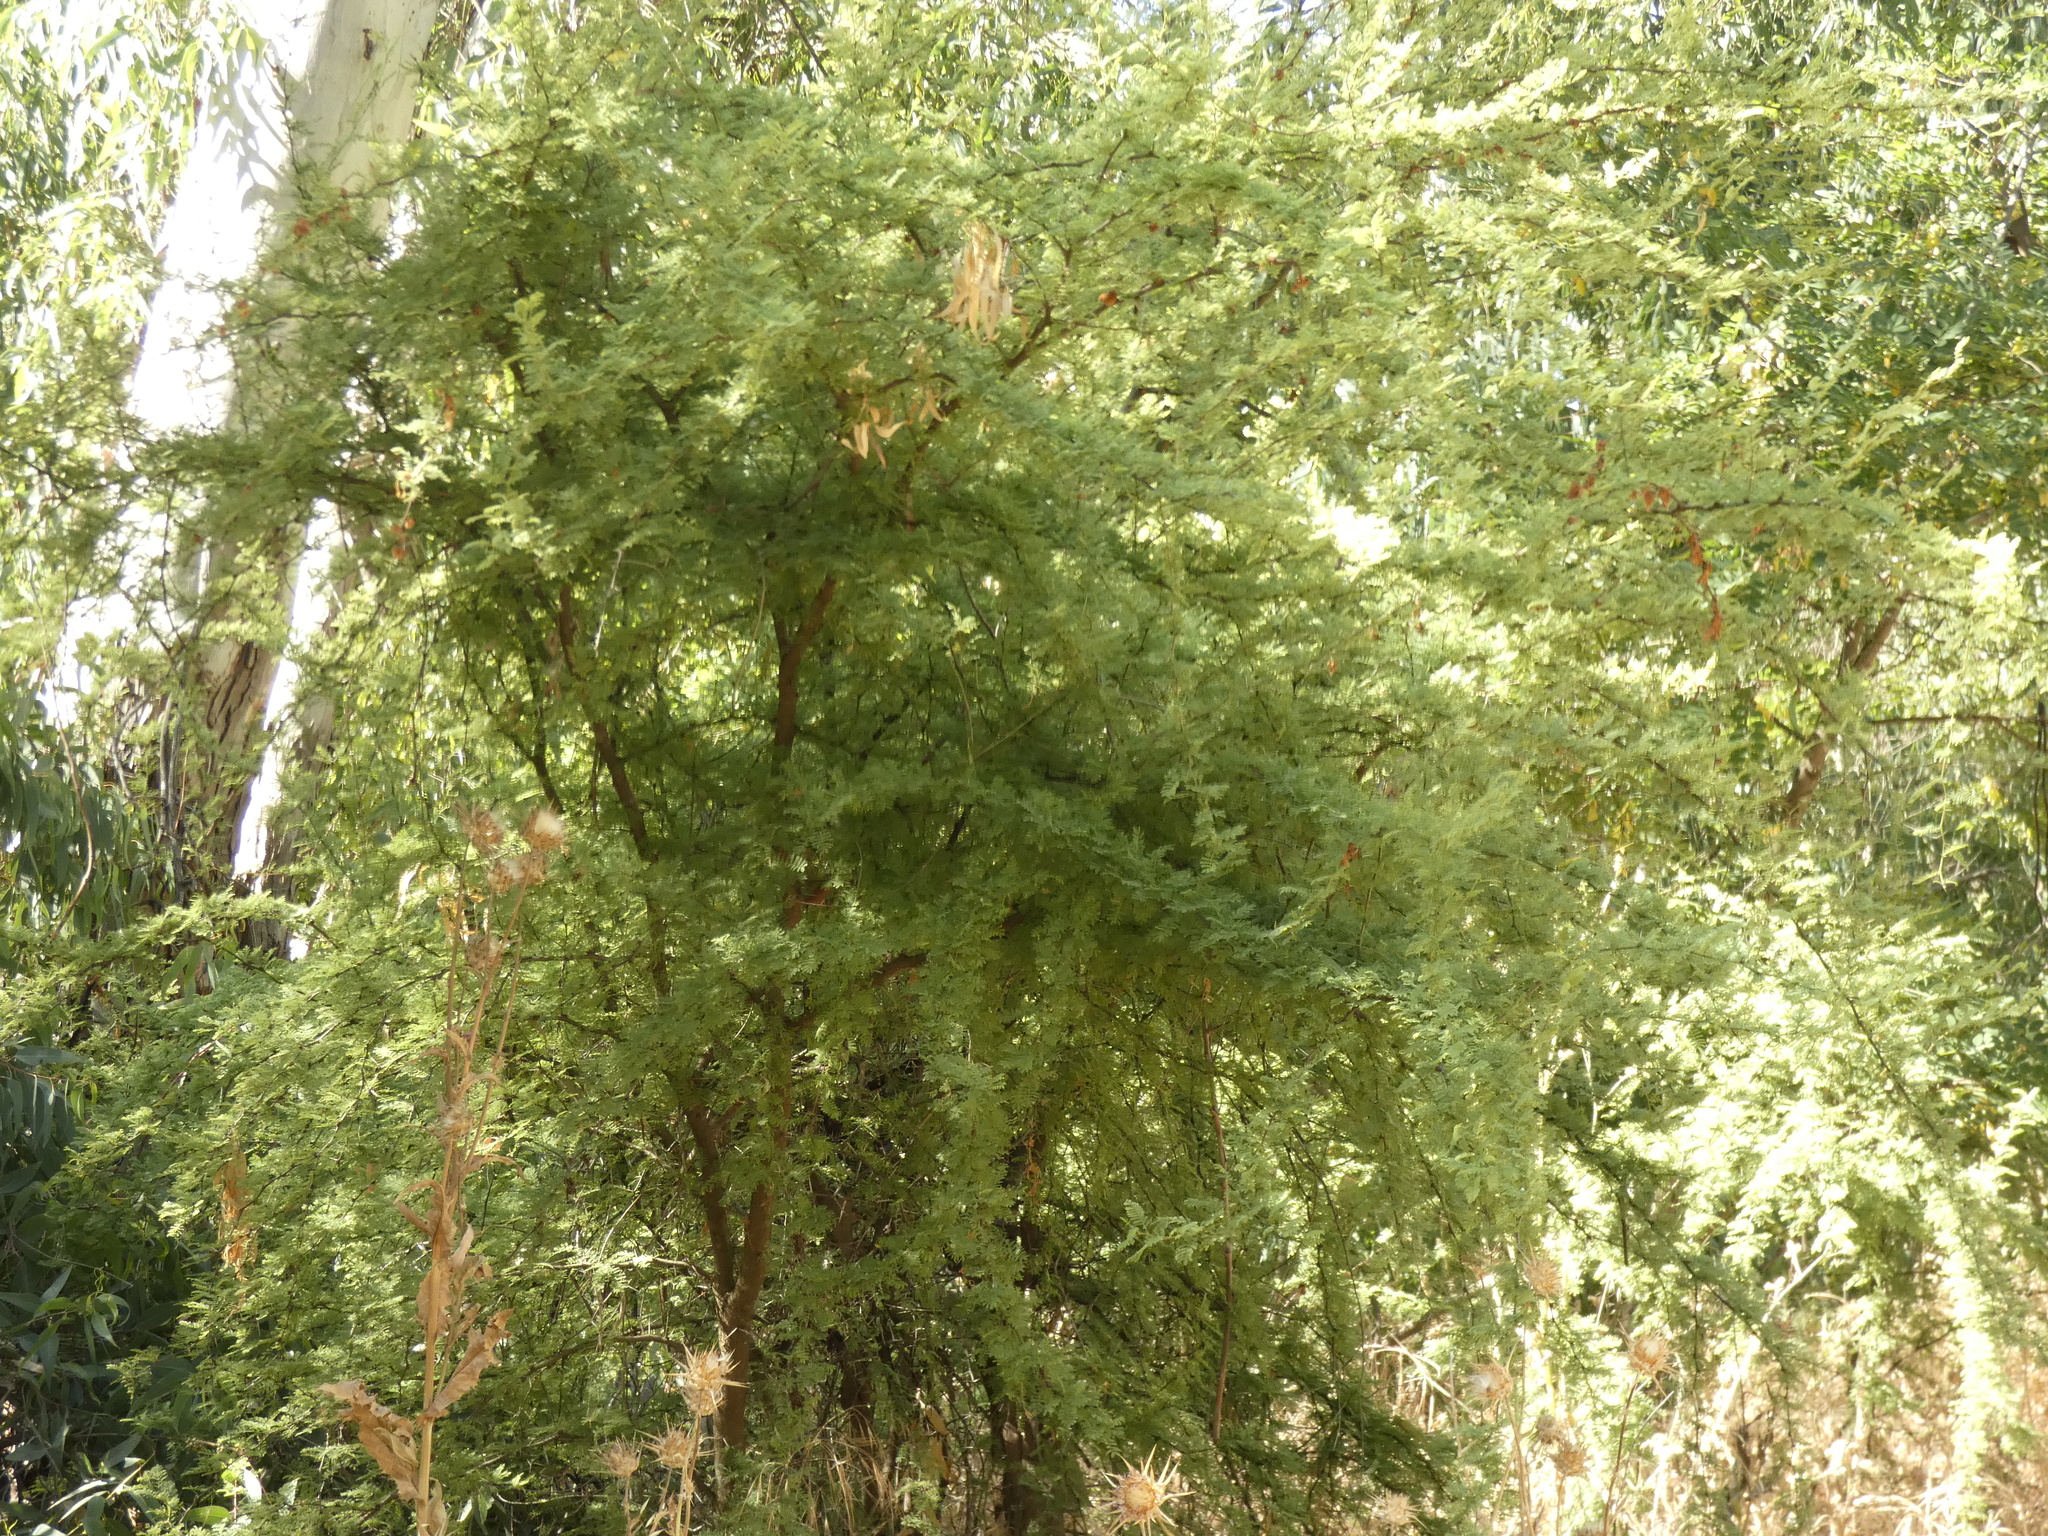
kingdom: Plantae
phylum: Tracheophyta
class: Magnoliopsida
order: Fabales
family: Fabaceae
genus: Vachellia
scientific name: Vachellia caven
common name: Roman cassie
